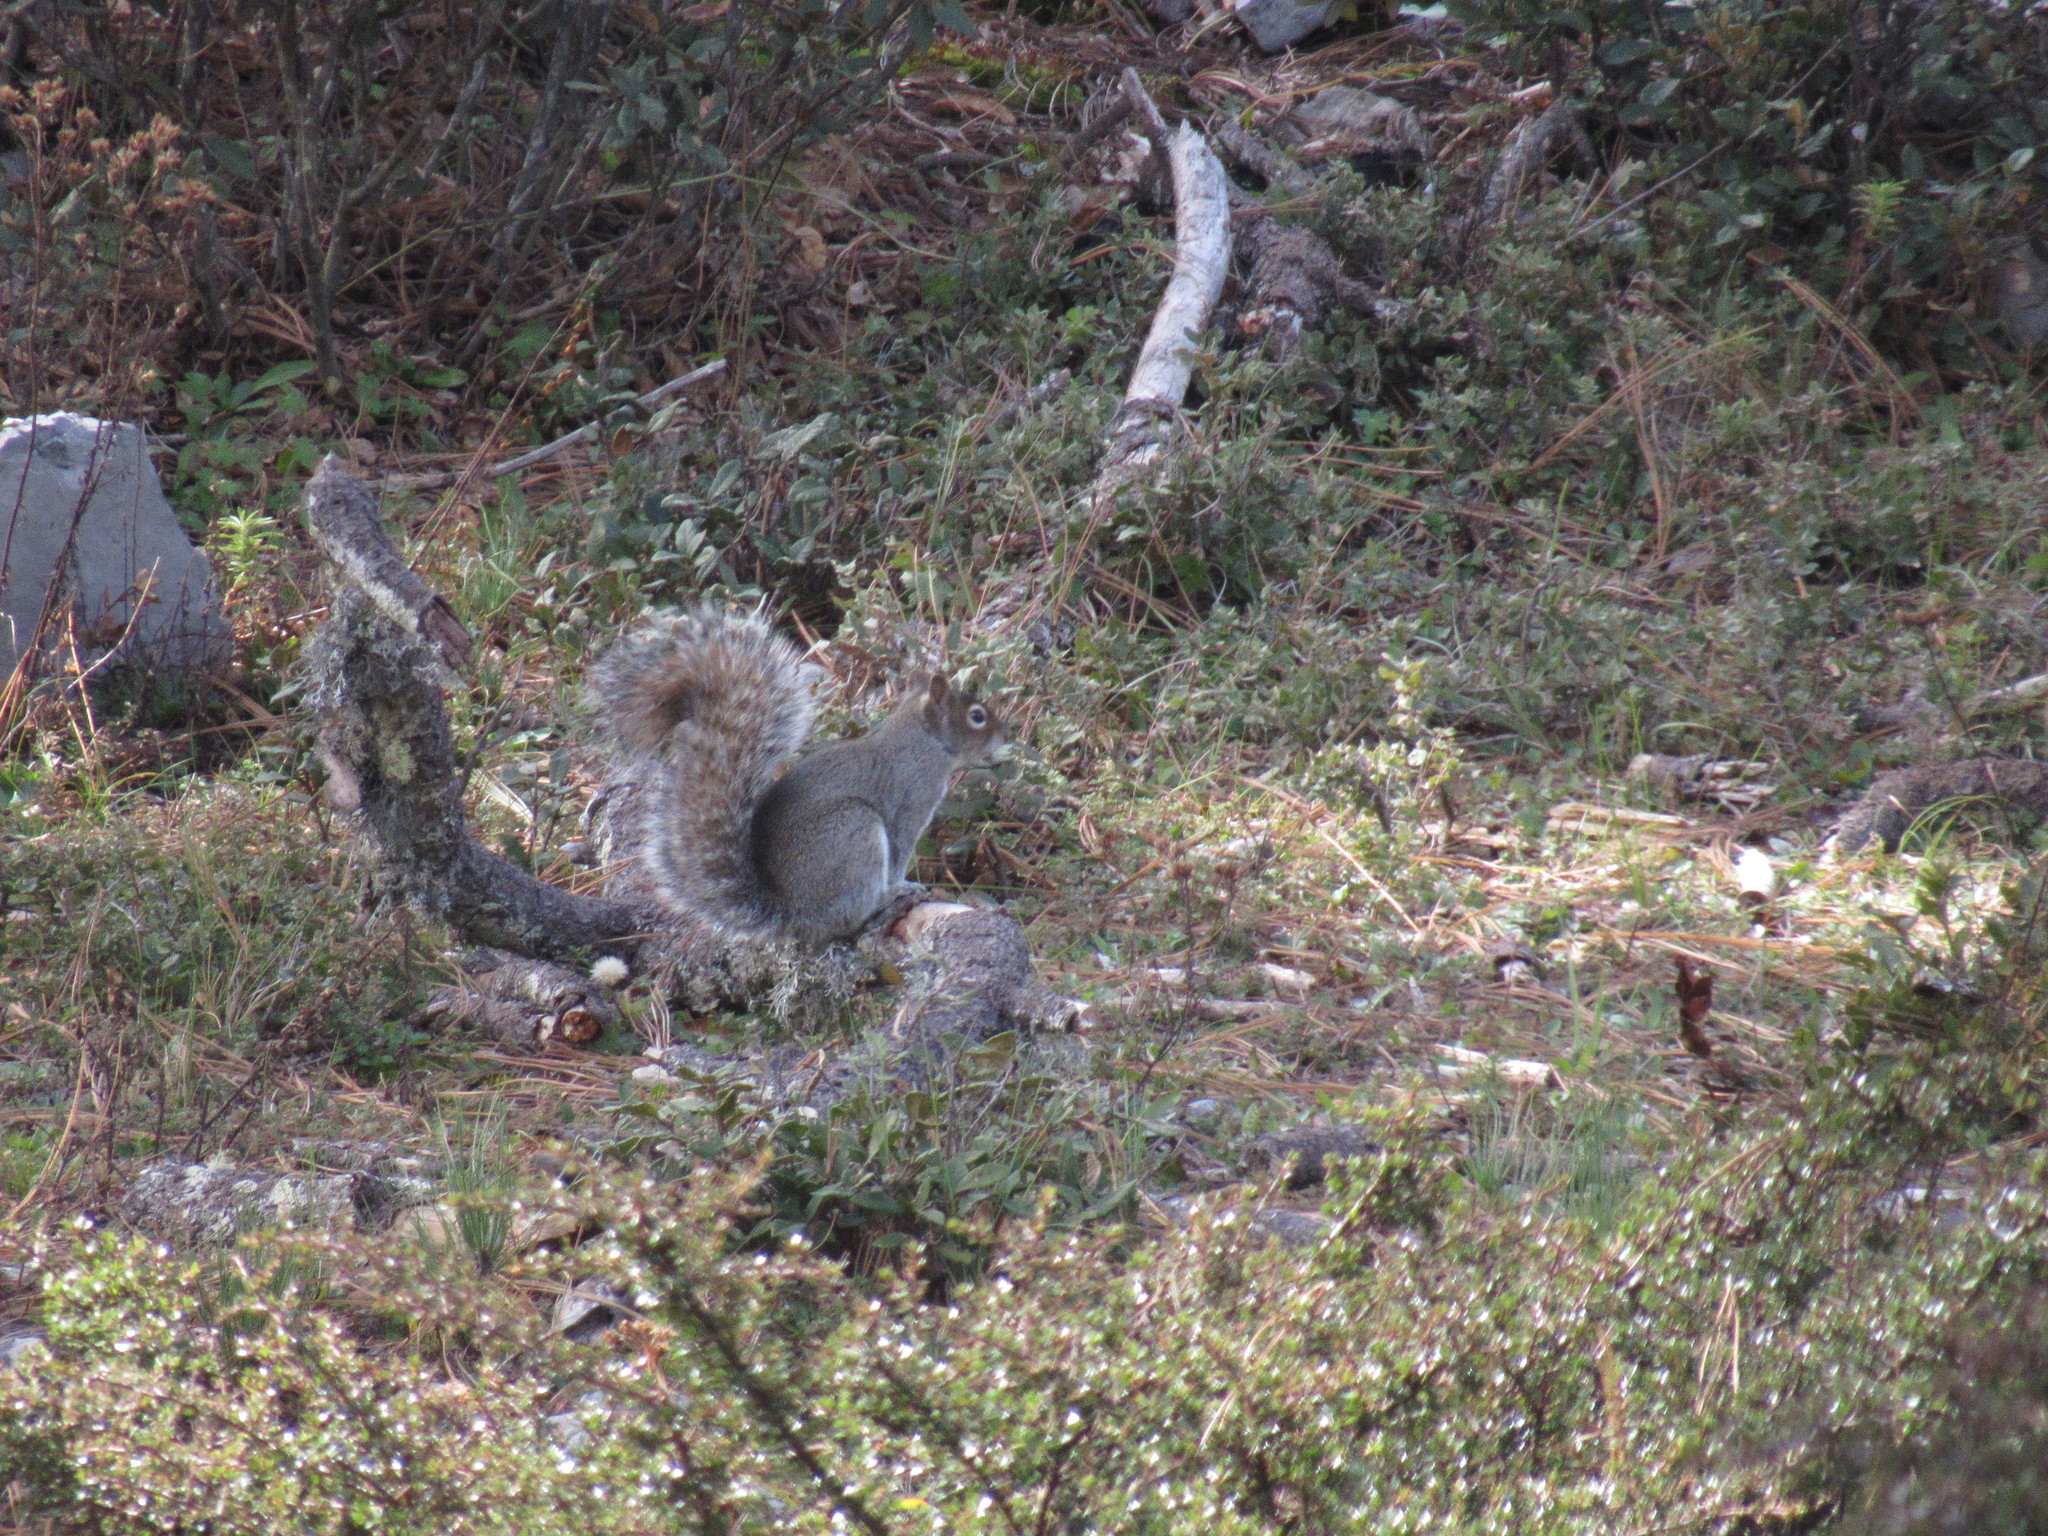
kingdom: Animalia
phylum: Chordata
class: Mammalia
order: Rodentia
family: Sciuridae
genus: Sciurus
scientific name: Sciurus alleni
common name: Allen's squirrel
